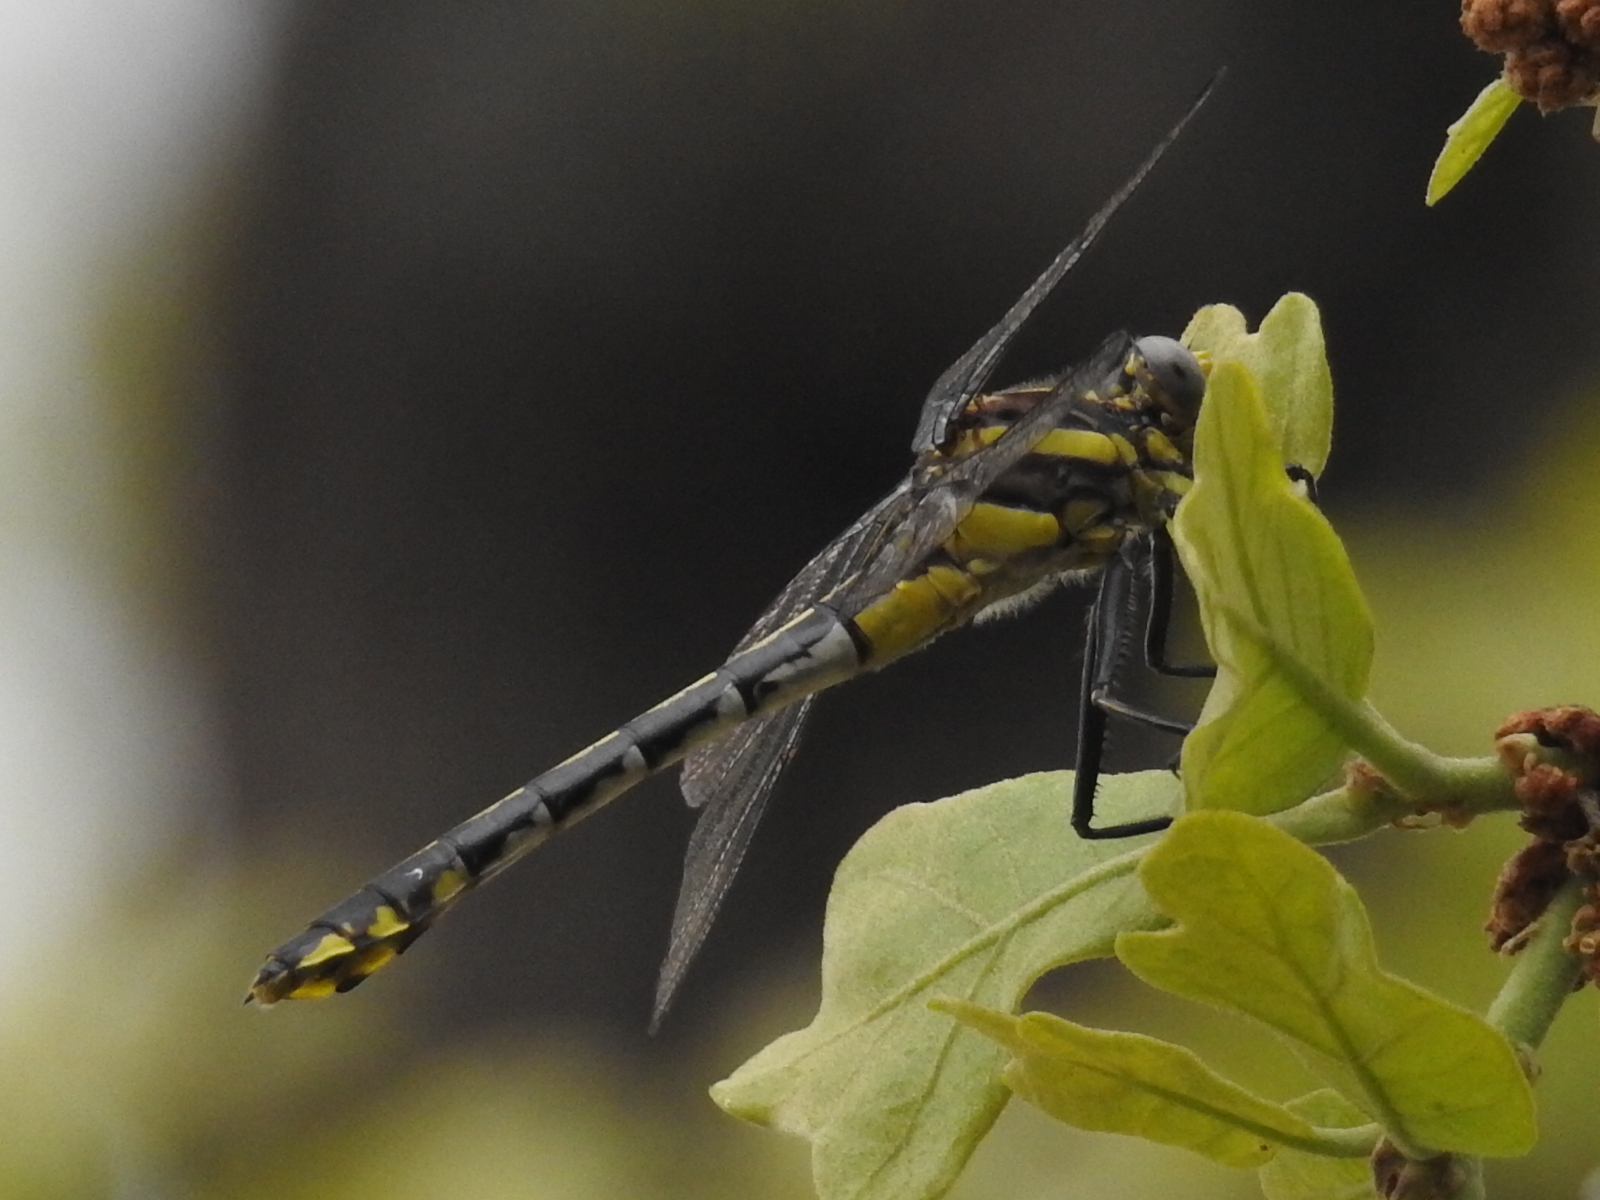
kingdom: Animalia
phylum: Arthropoda
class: Insecta
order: Odonata
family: Gomphidae
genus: Gomphurus
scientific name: Gomphurus externus
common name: Plains clubtail
